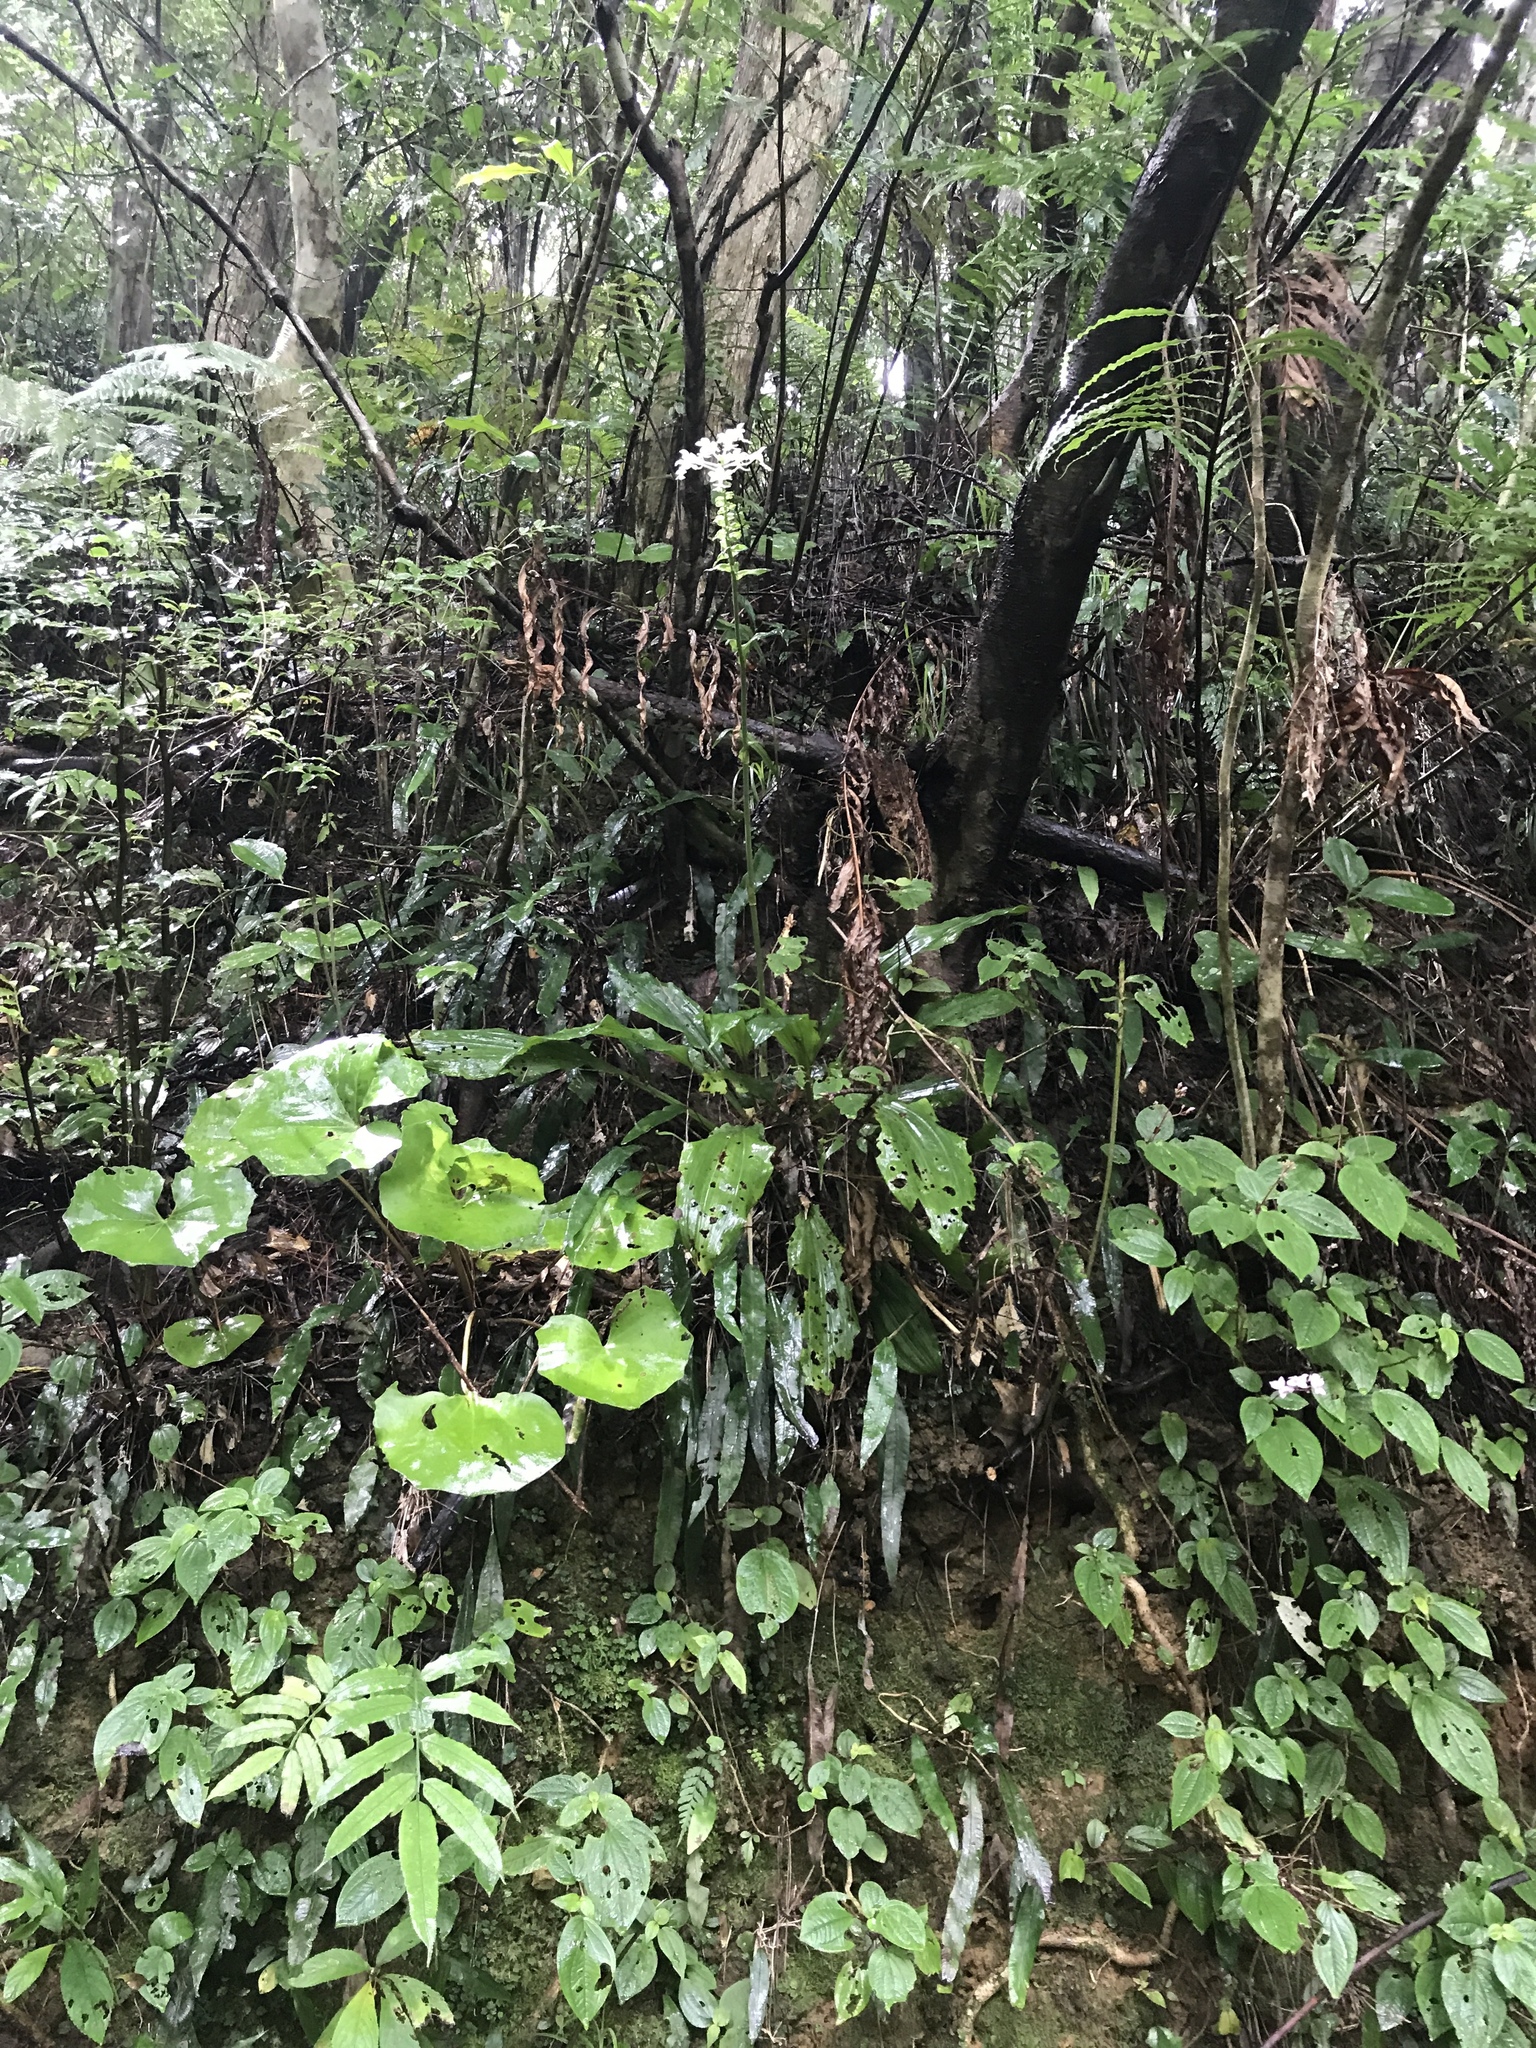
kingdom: Plantae
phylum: Tracheophyta
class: Liliopsida
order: Asparagales
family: Orchidaceae
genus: Calanthe
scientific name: Calanthe triplicata
